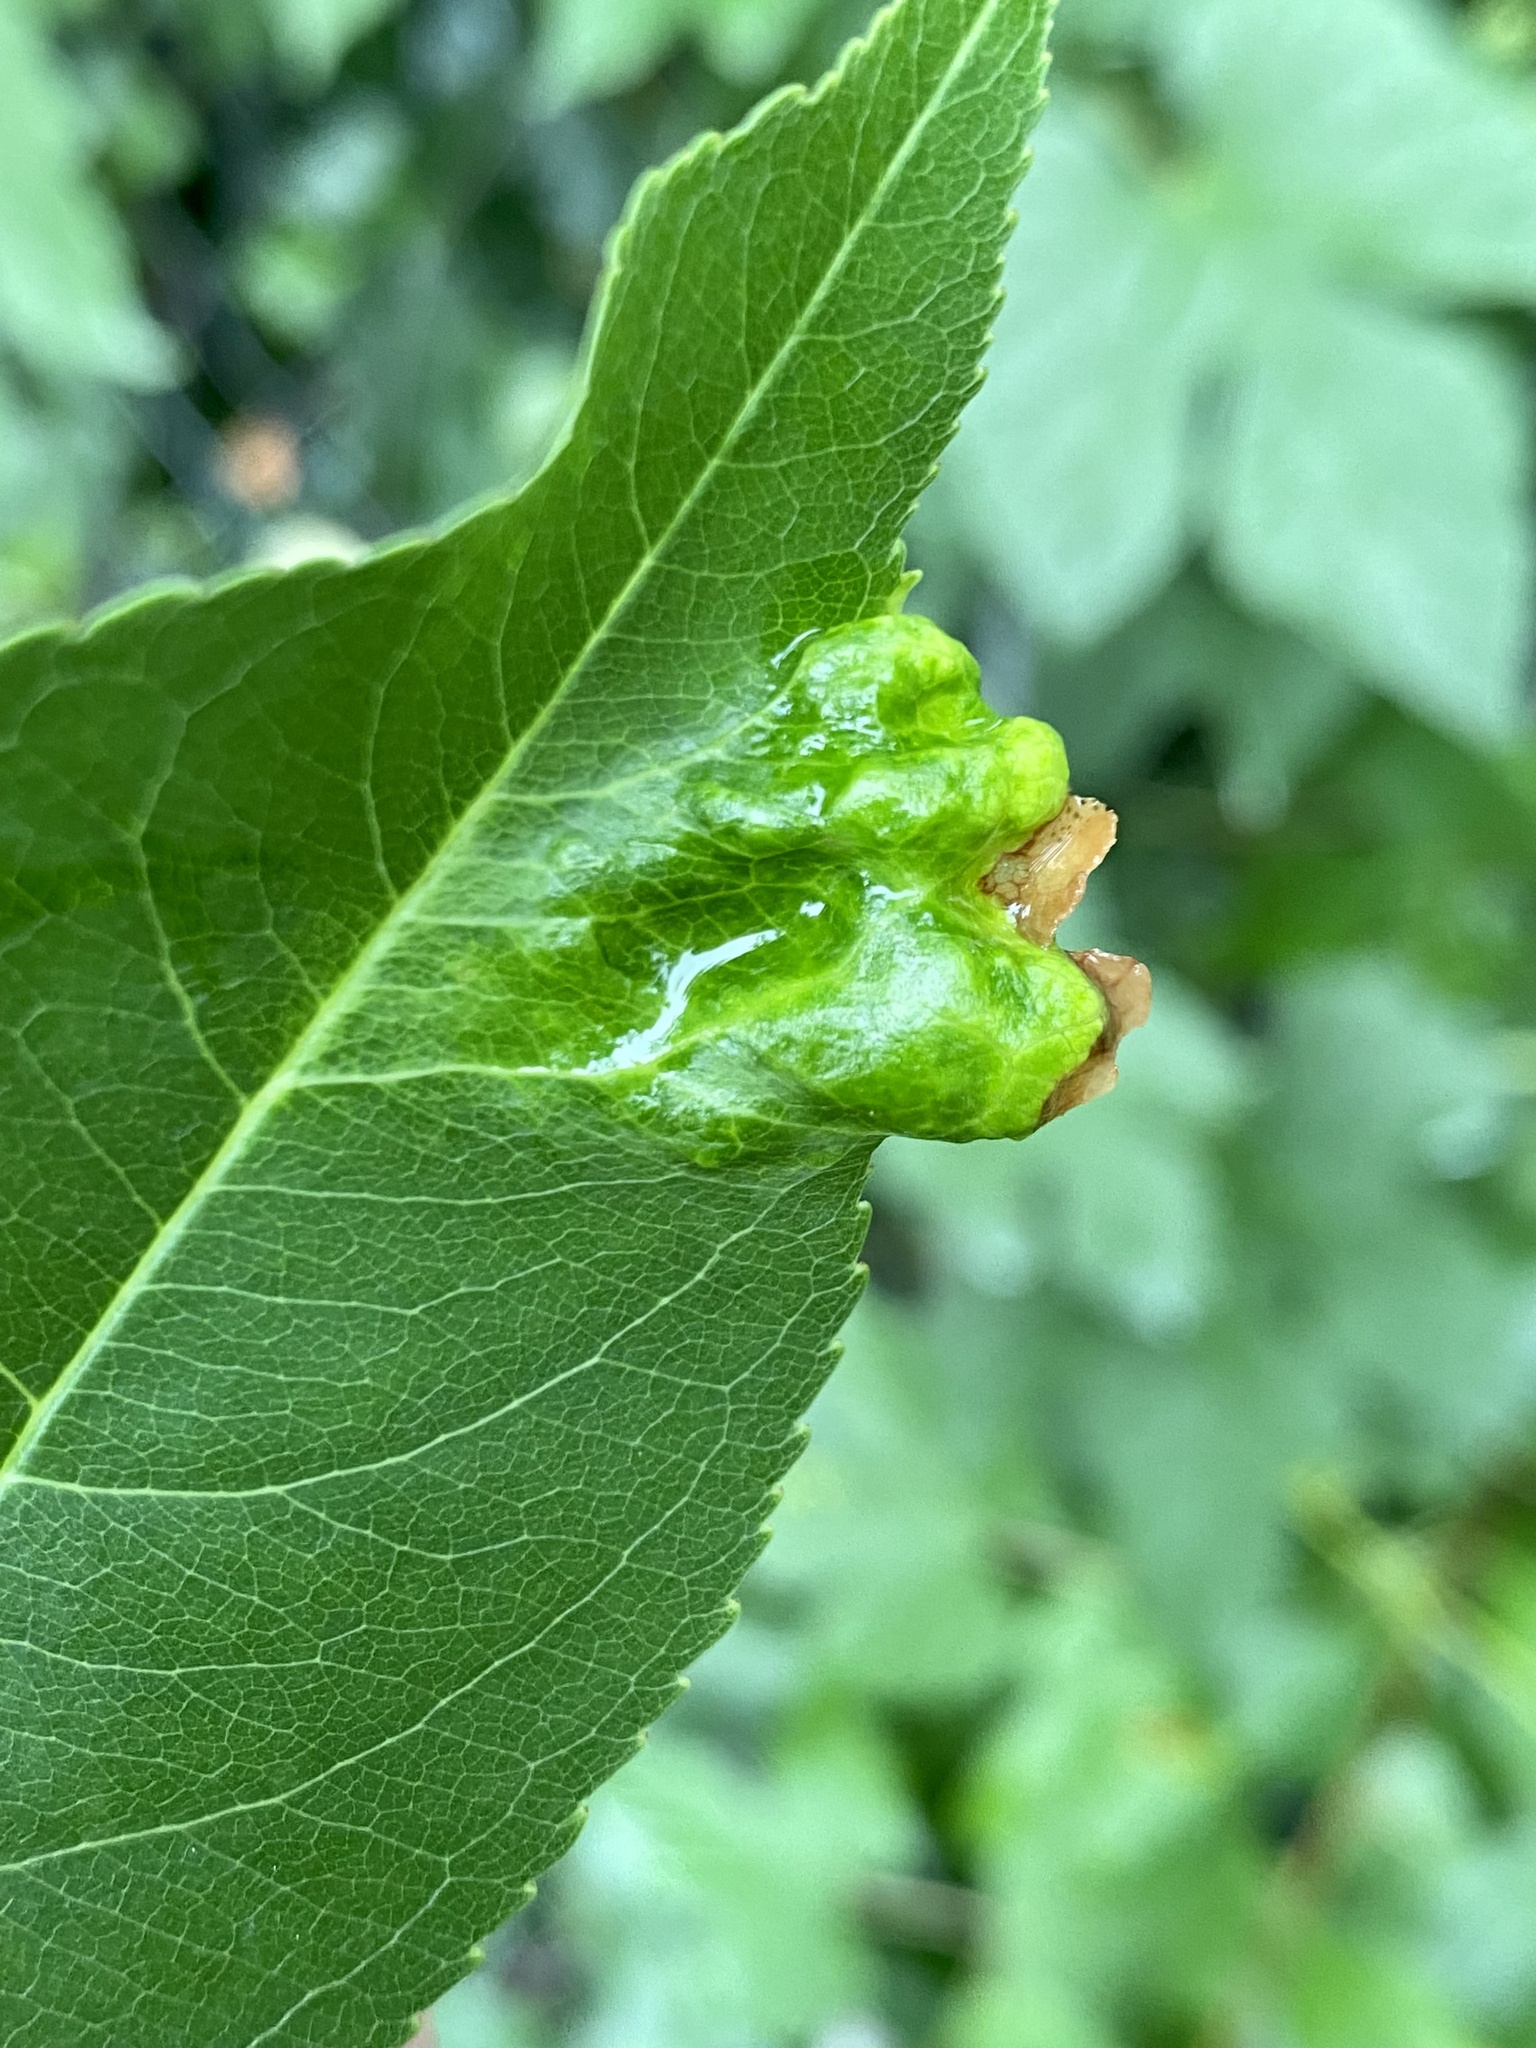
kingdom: Fungi
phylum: Ascomycota
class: Taphrinomycetes
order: Taphrinales
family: Taphrinaceae
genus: Taphrina
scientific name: Taphrina farlowii
